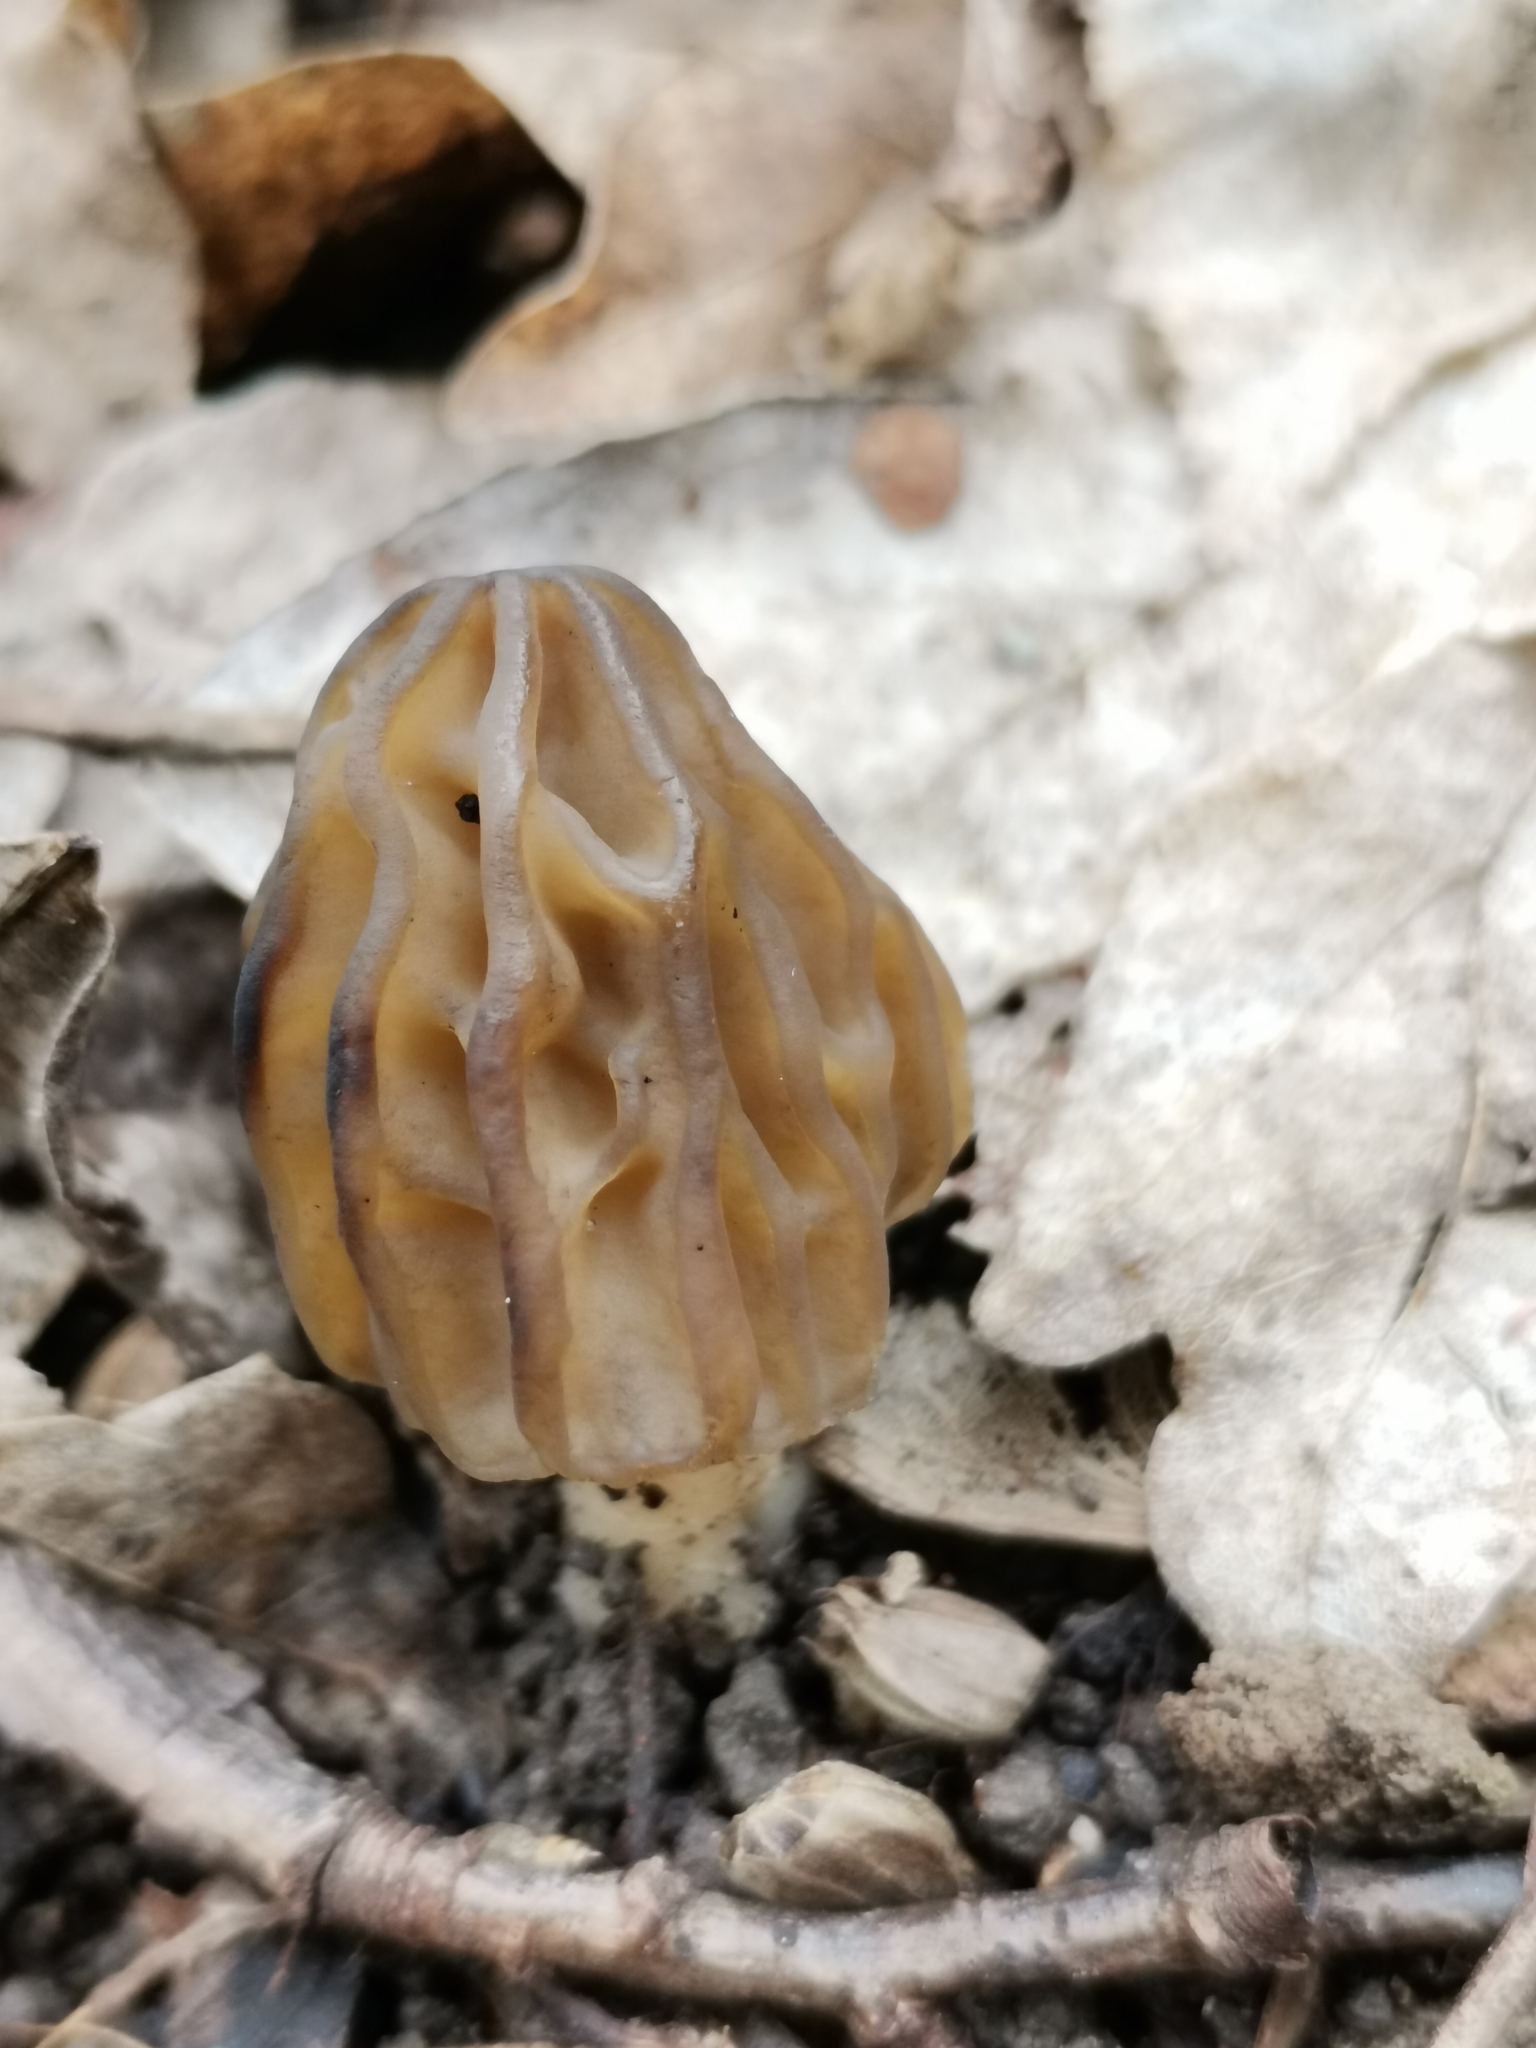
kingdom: Fungi
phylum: Ascomycota
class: Pezizomycetes
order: Pezizales
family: Morchellaceae
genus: Morchella
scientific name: Morchella semilibera
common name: Semifree morel
